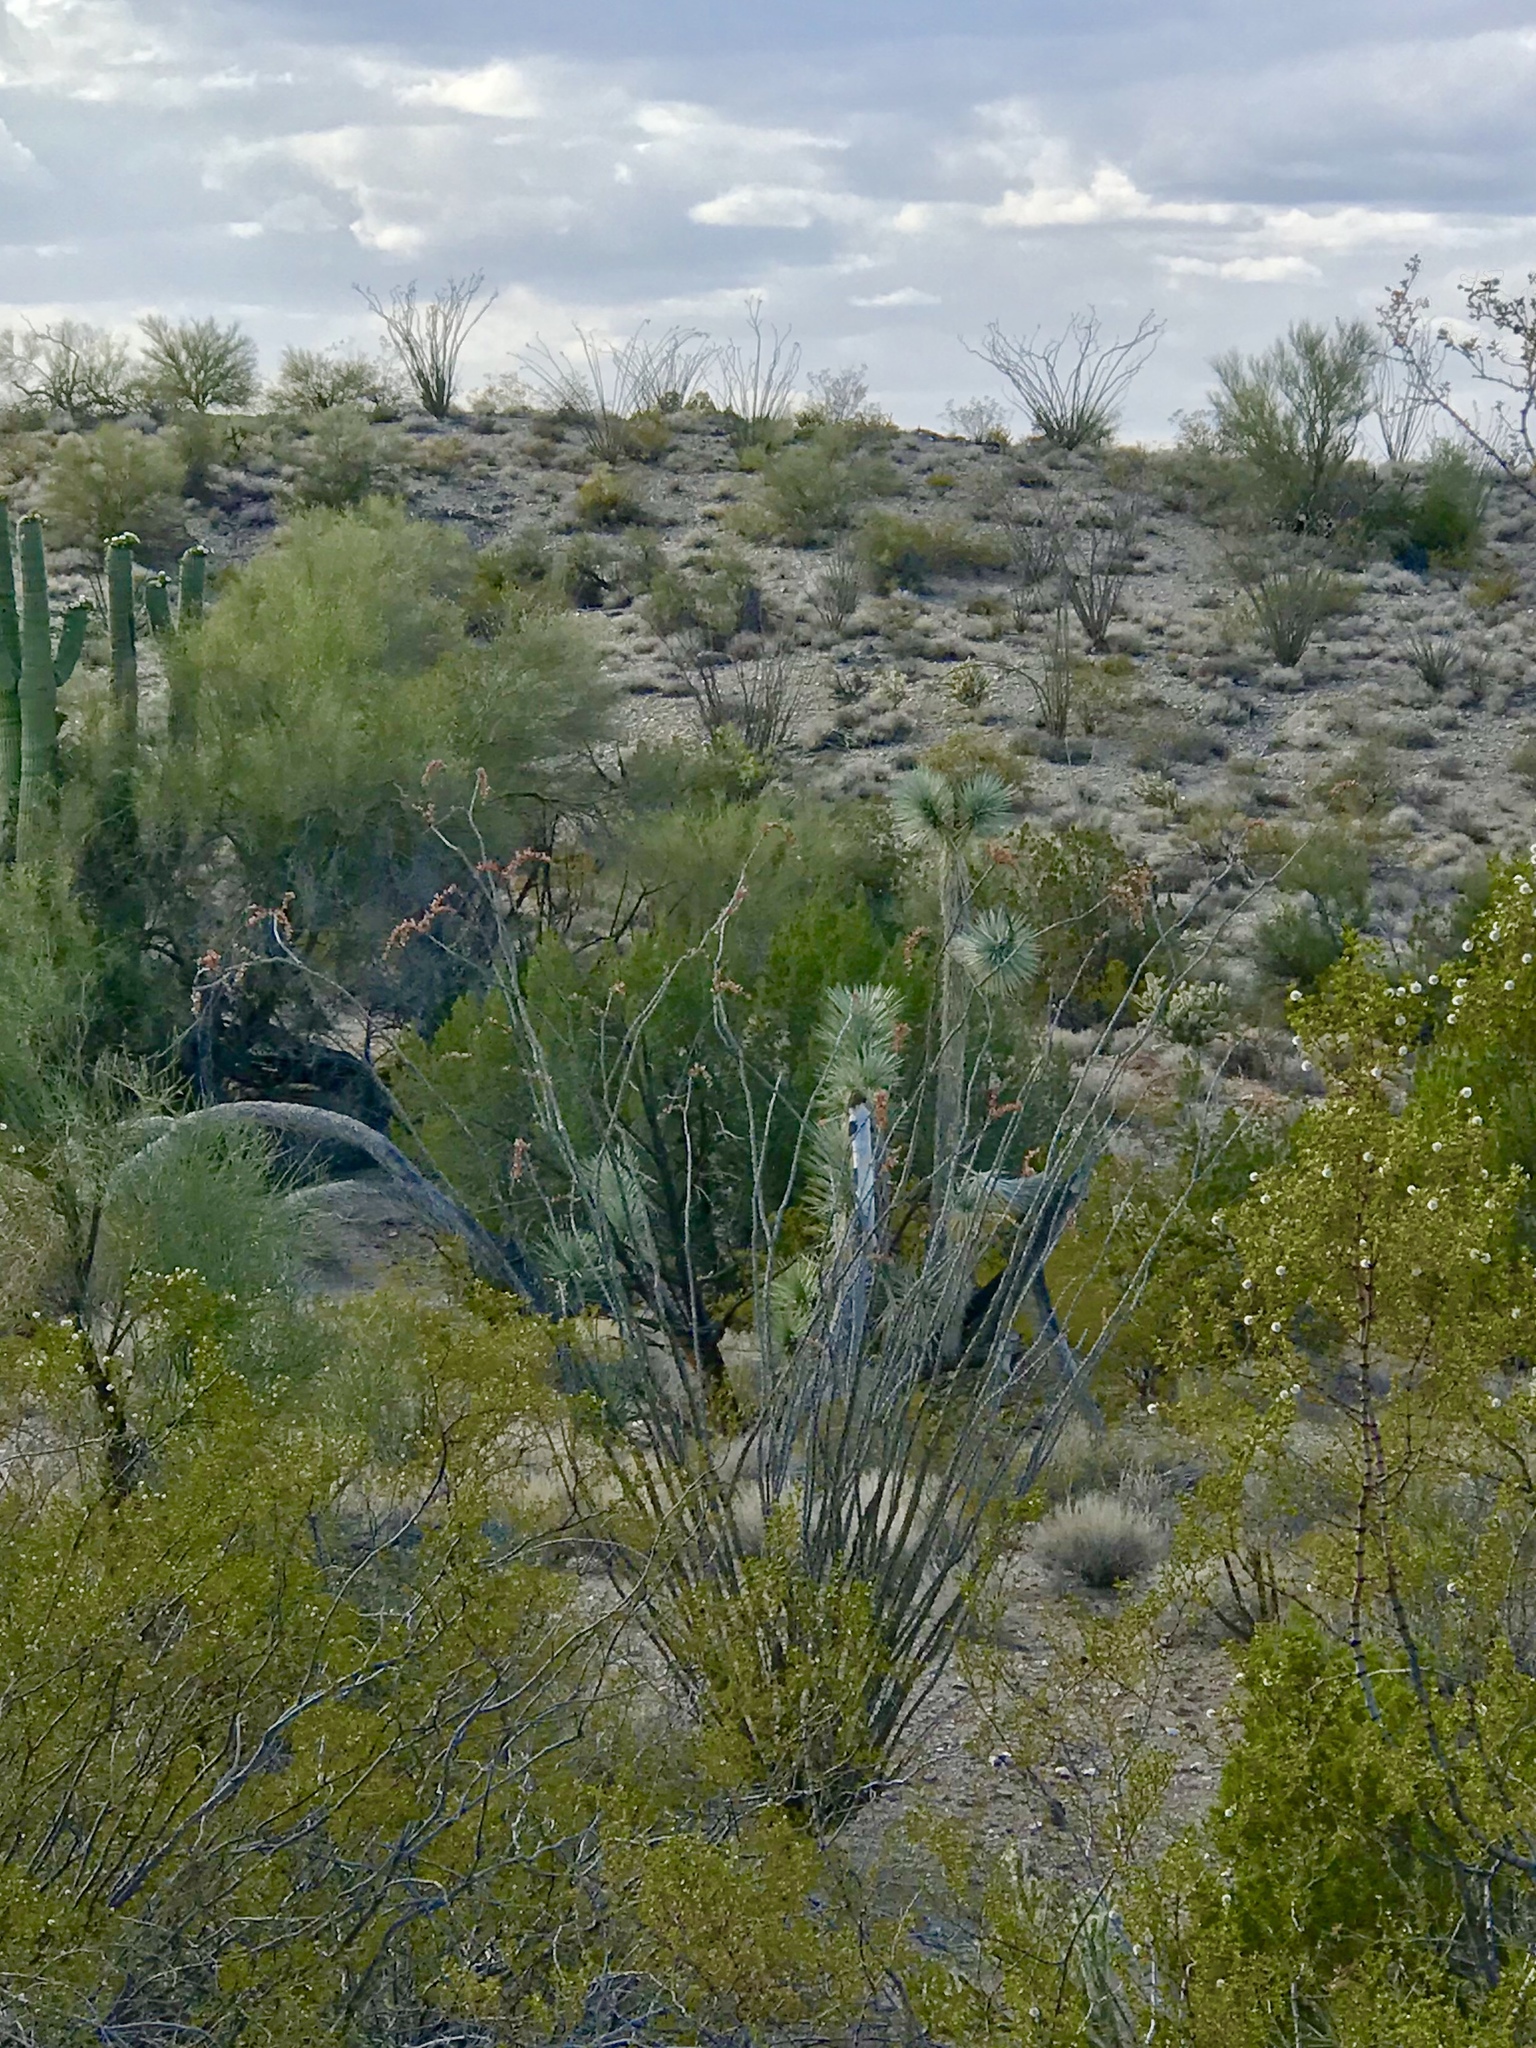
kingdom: Plantae
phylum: Tracheophyta
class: Magnoliopsida
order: Ericales
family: Fouquieriaceae
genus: Fouquieria
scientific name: Fouquieria splendens
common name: Vine-cactus
